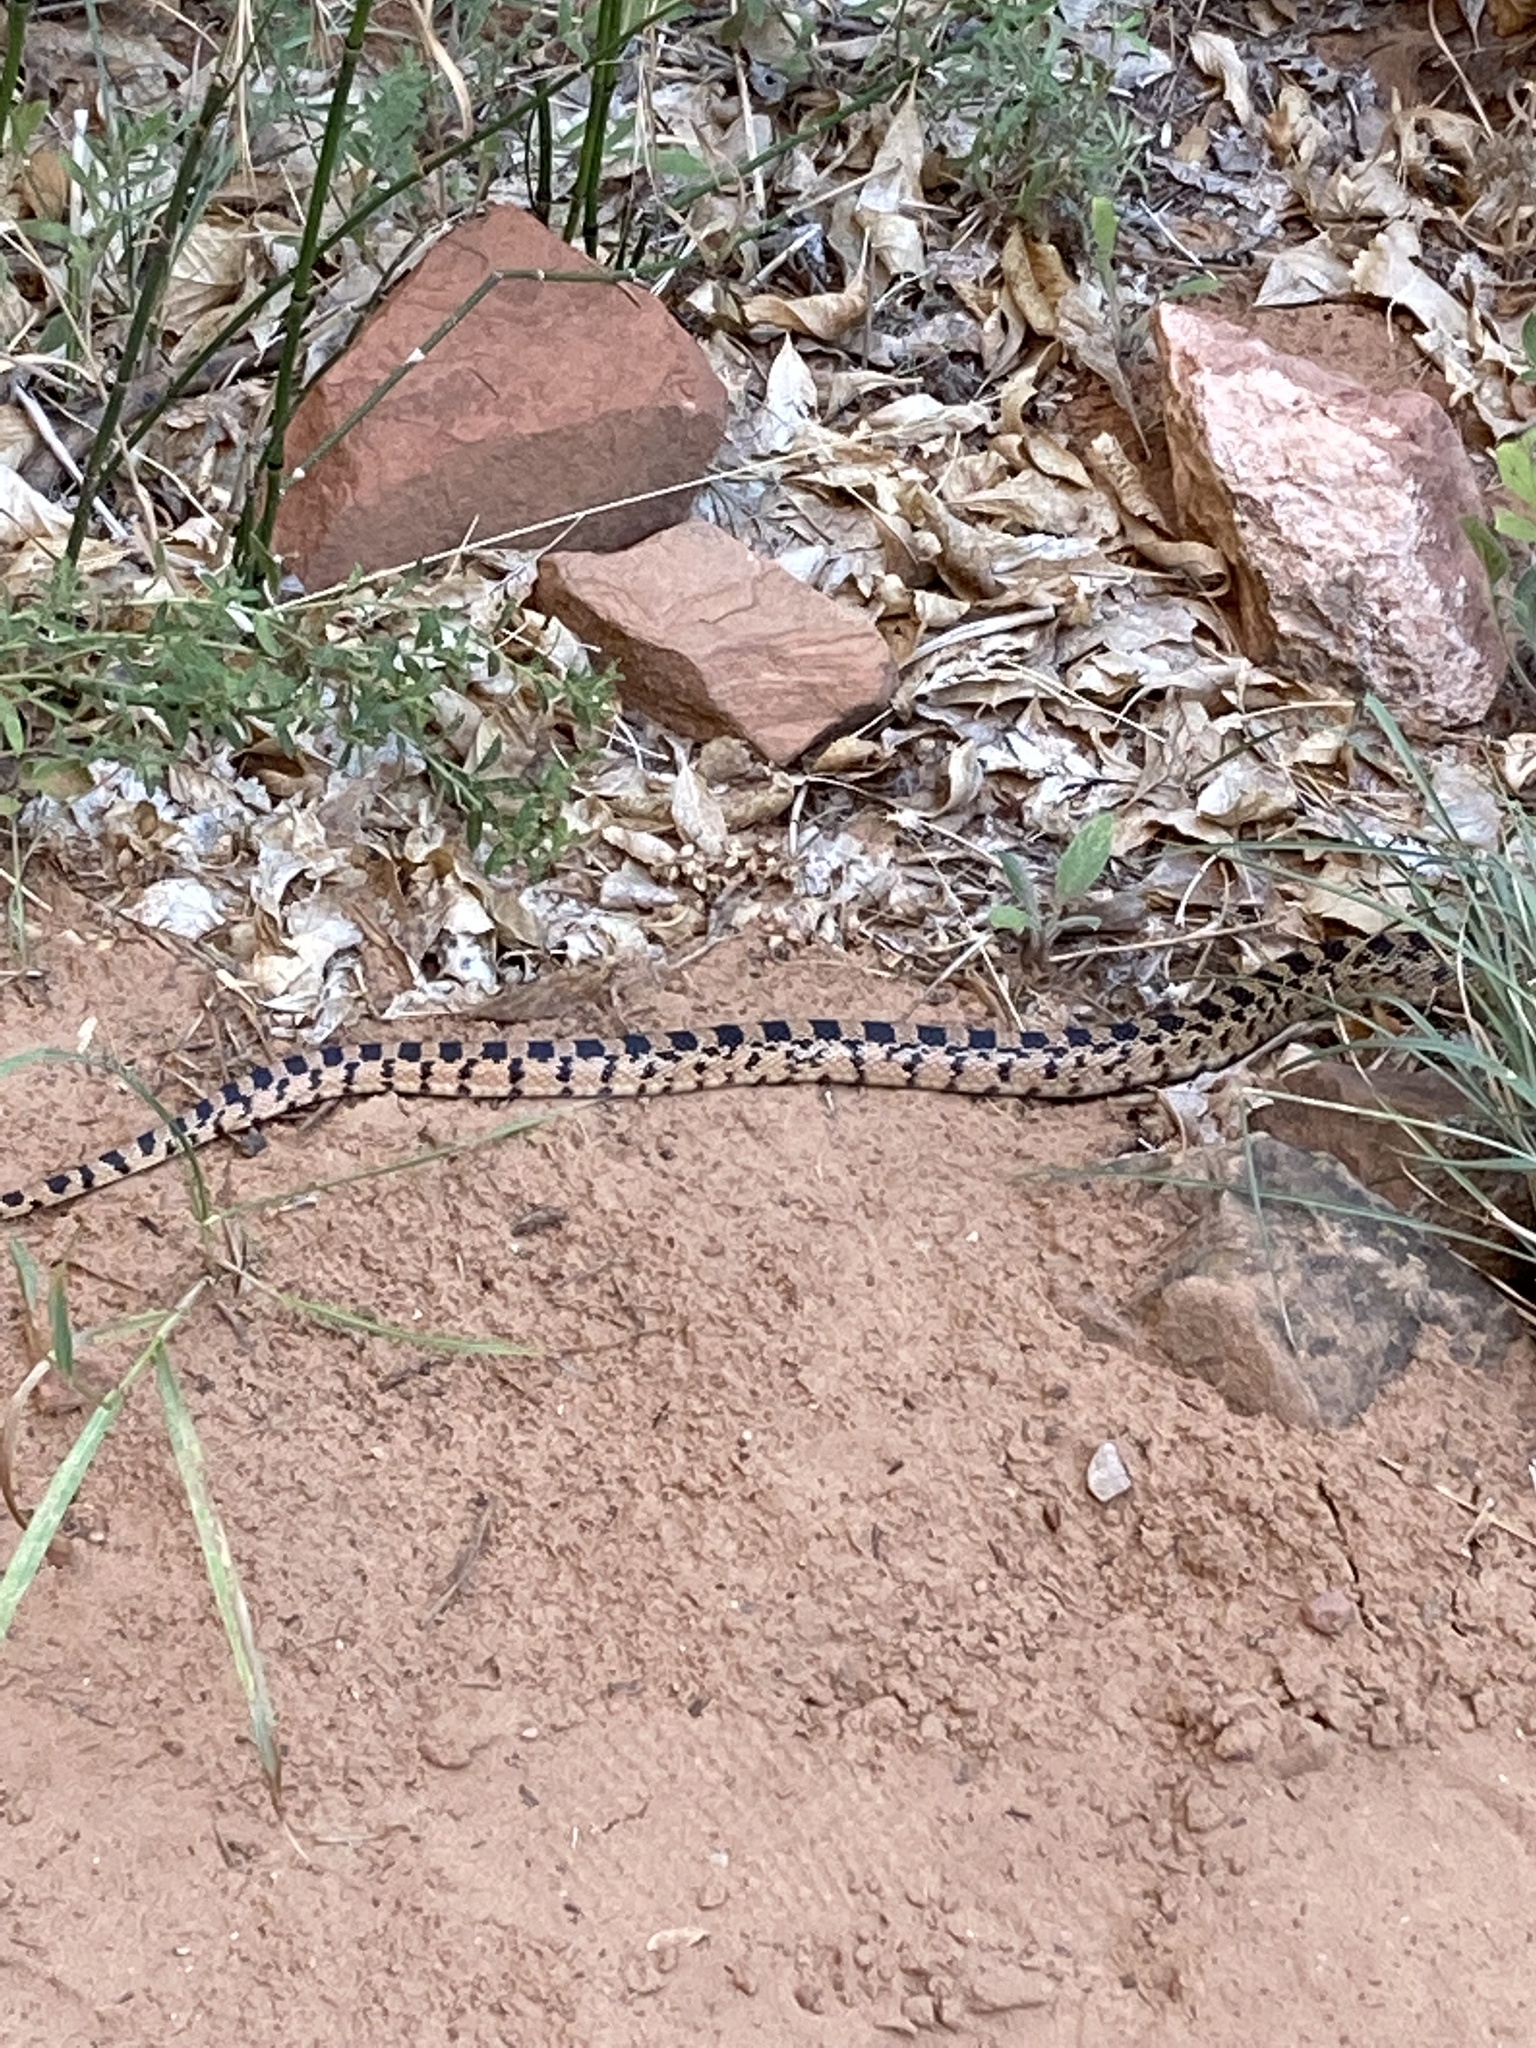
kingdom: Animalia
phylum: Chordata
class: Squamata
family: Colubridae
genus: Pituophis
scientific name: Pituophis catenifer
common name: Gopher snake
